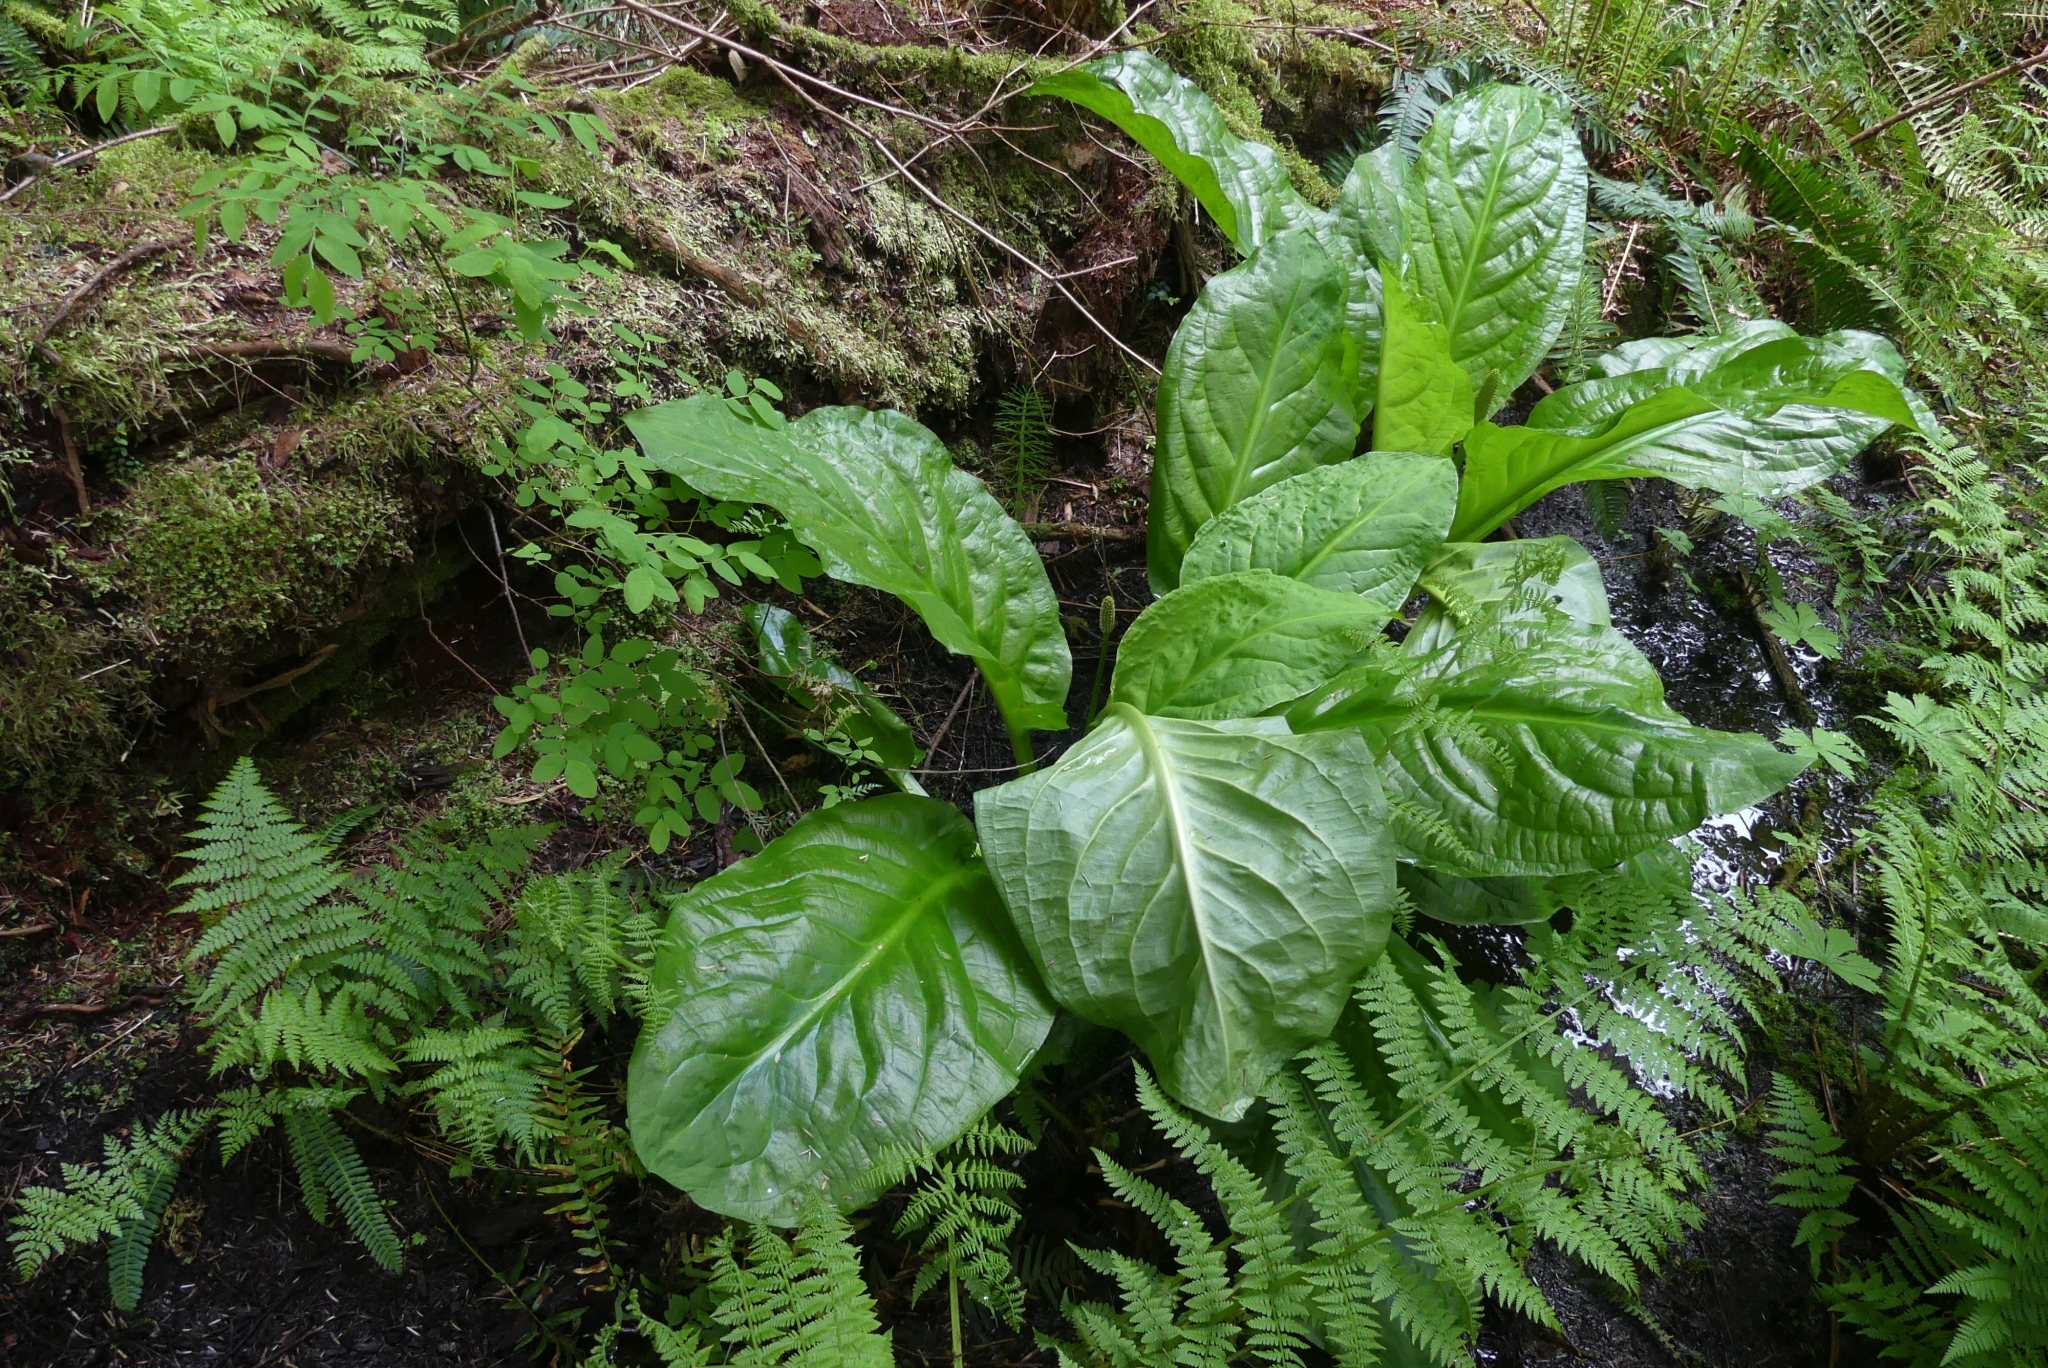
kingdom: Plantae
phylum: Tracheophyta
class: Liliopsida
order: Alismatales
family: Araceae
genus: Lysichiton
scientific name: Lysichiton americanus
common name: American skunk cabbage
